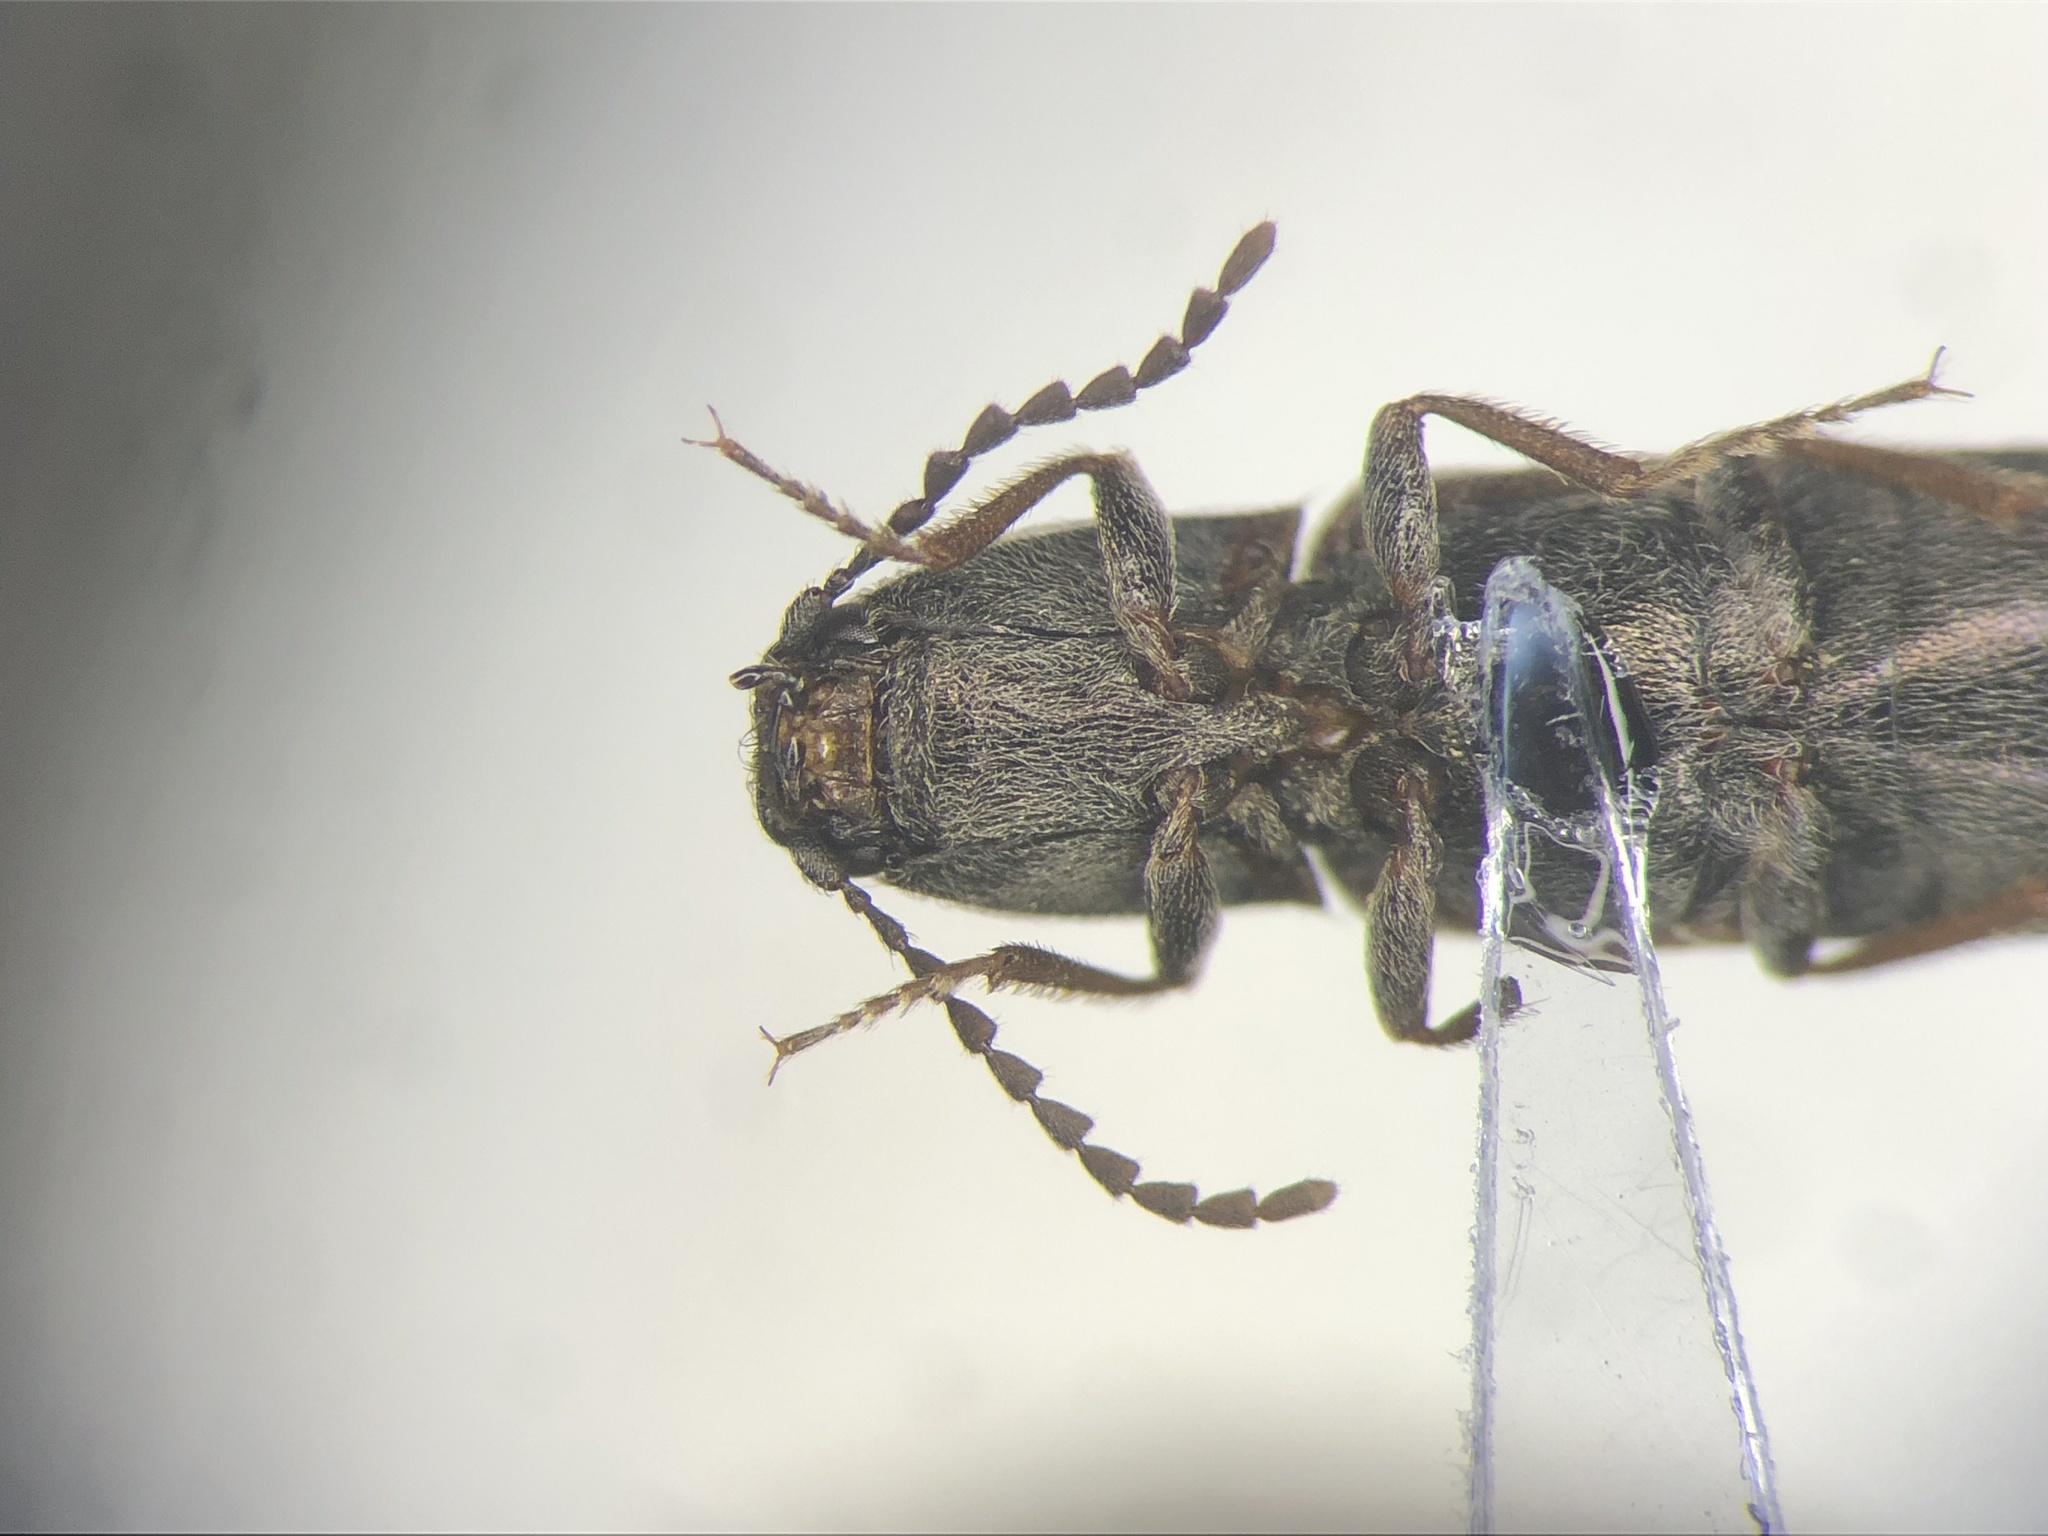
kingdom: Animalia
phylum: Arthropoda
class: Insecta
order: Coleoptera
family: Elateridae
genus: Limonius
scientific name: Limonius
